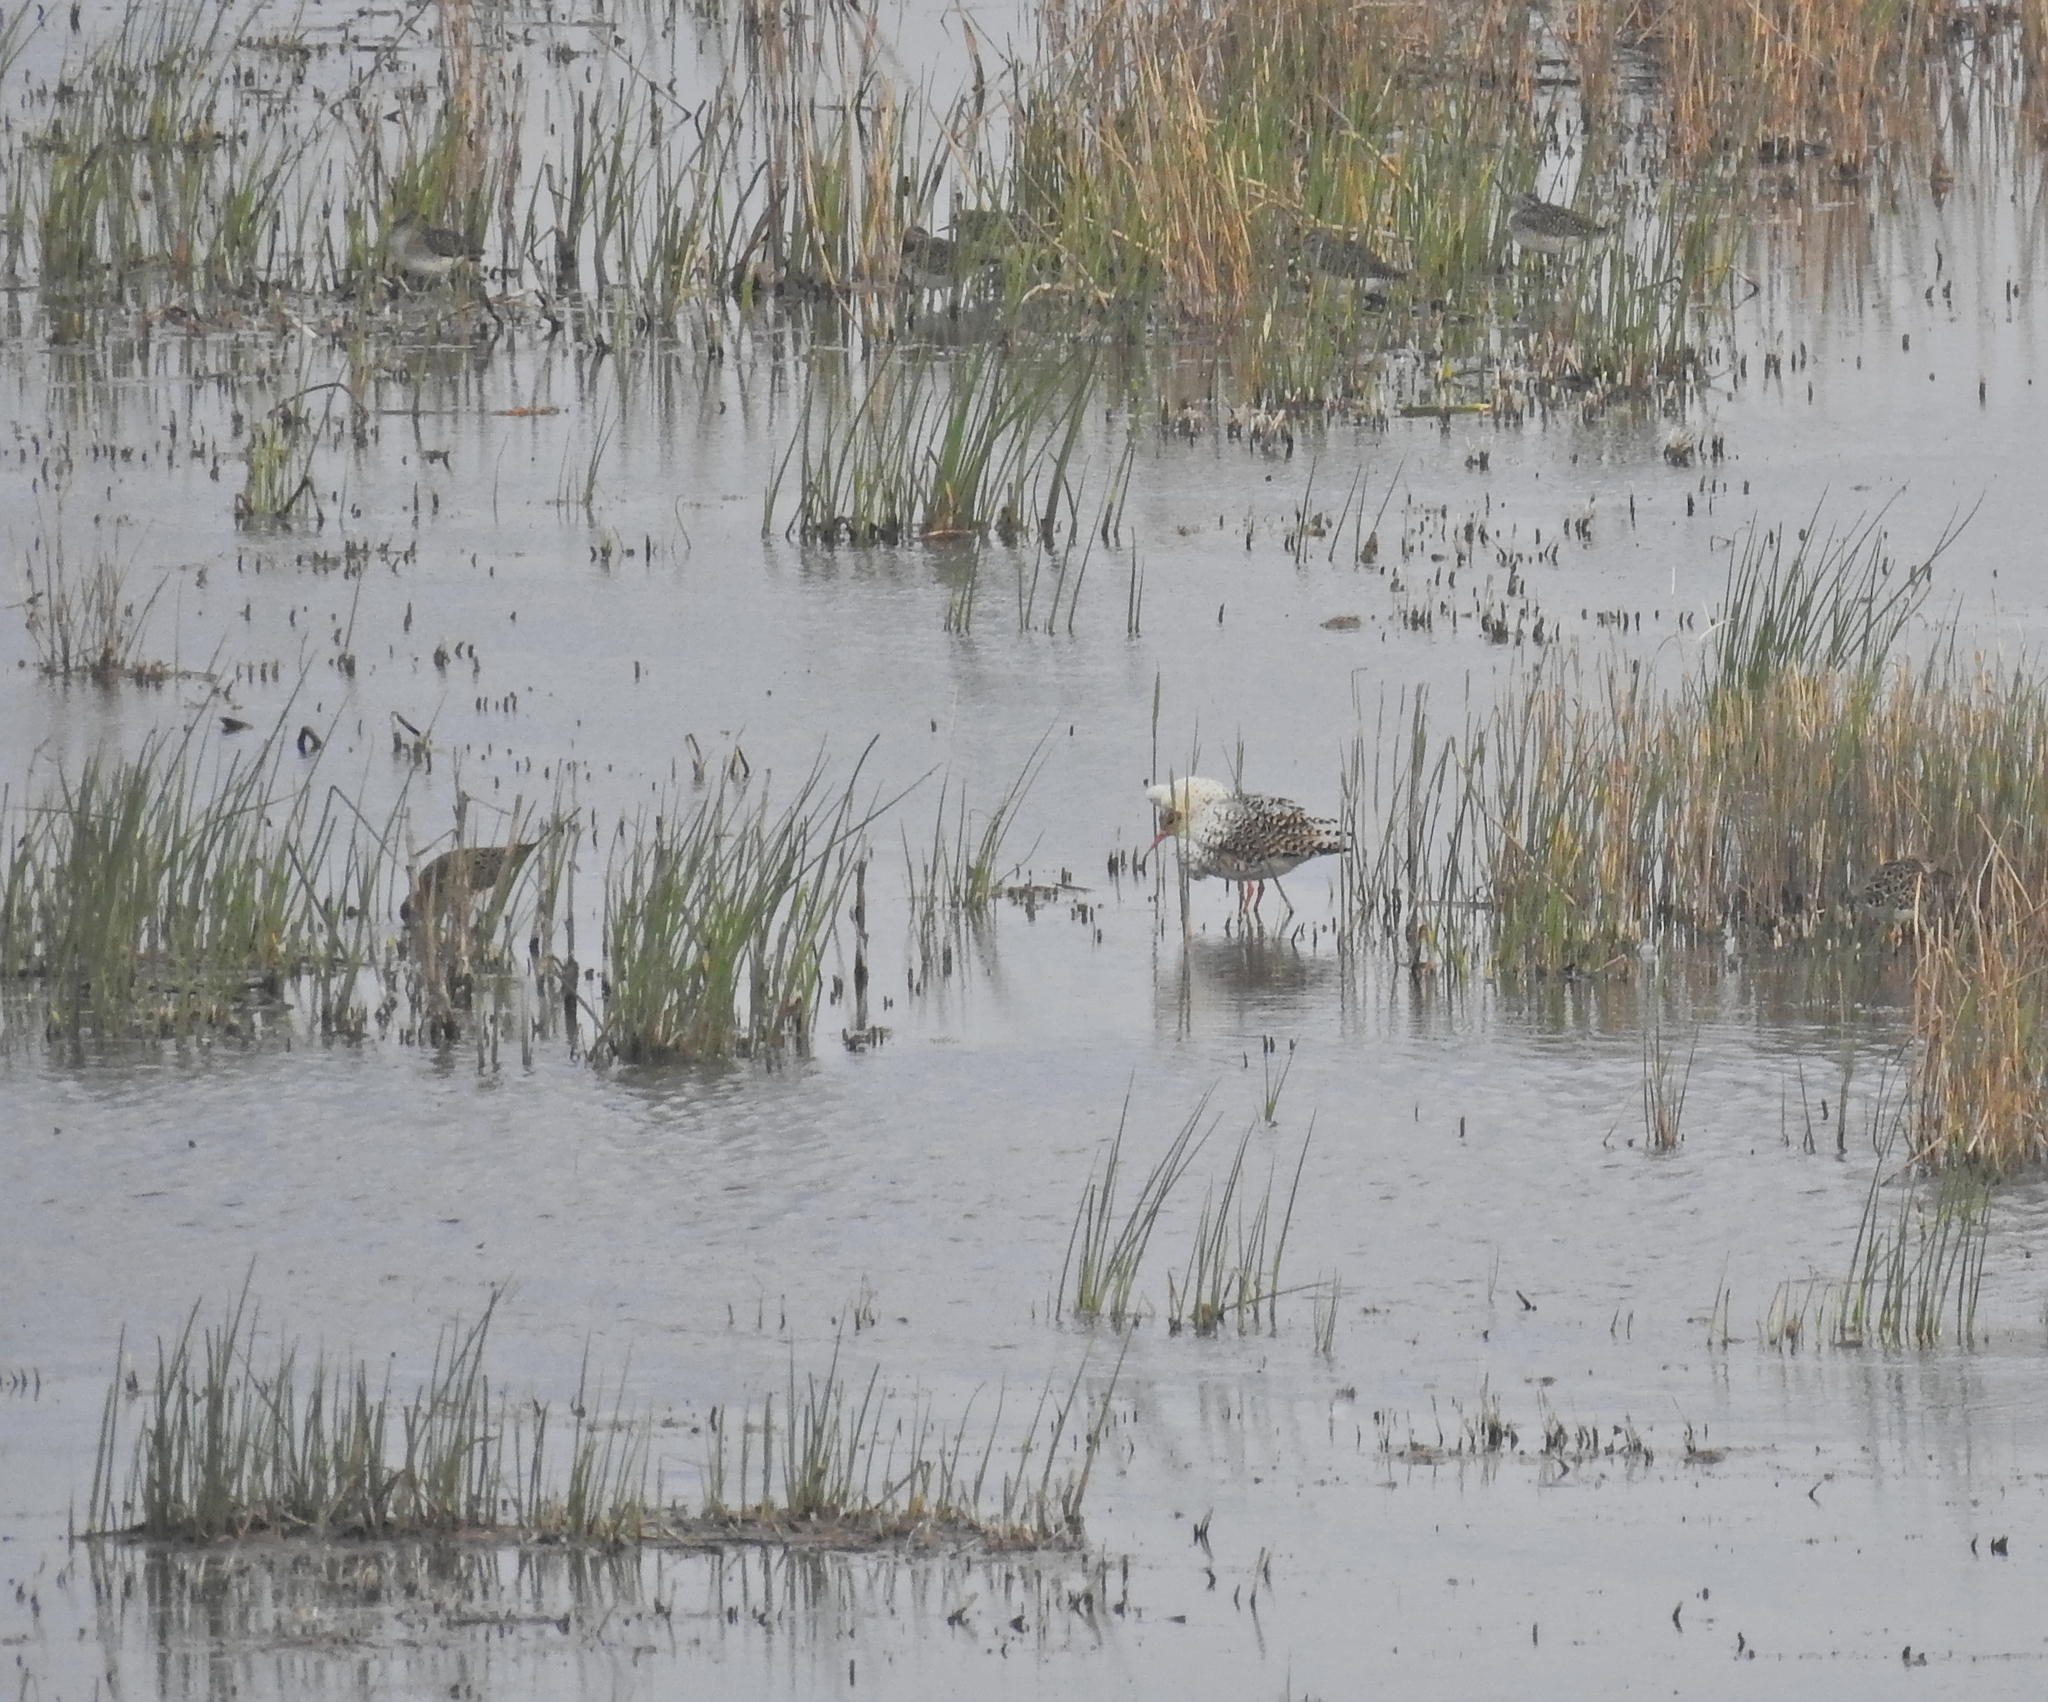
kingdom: Animalia
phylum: Chordata
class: Aves
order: Charadriiformes
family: Scolopacidae
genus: Calidris
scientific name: Calidris pugnax
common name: Ruff
